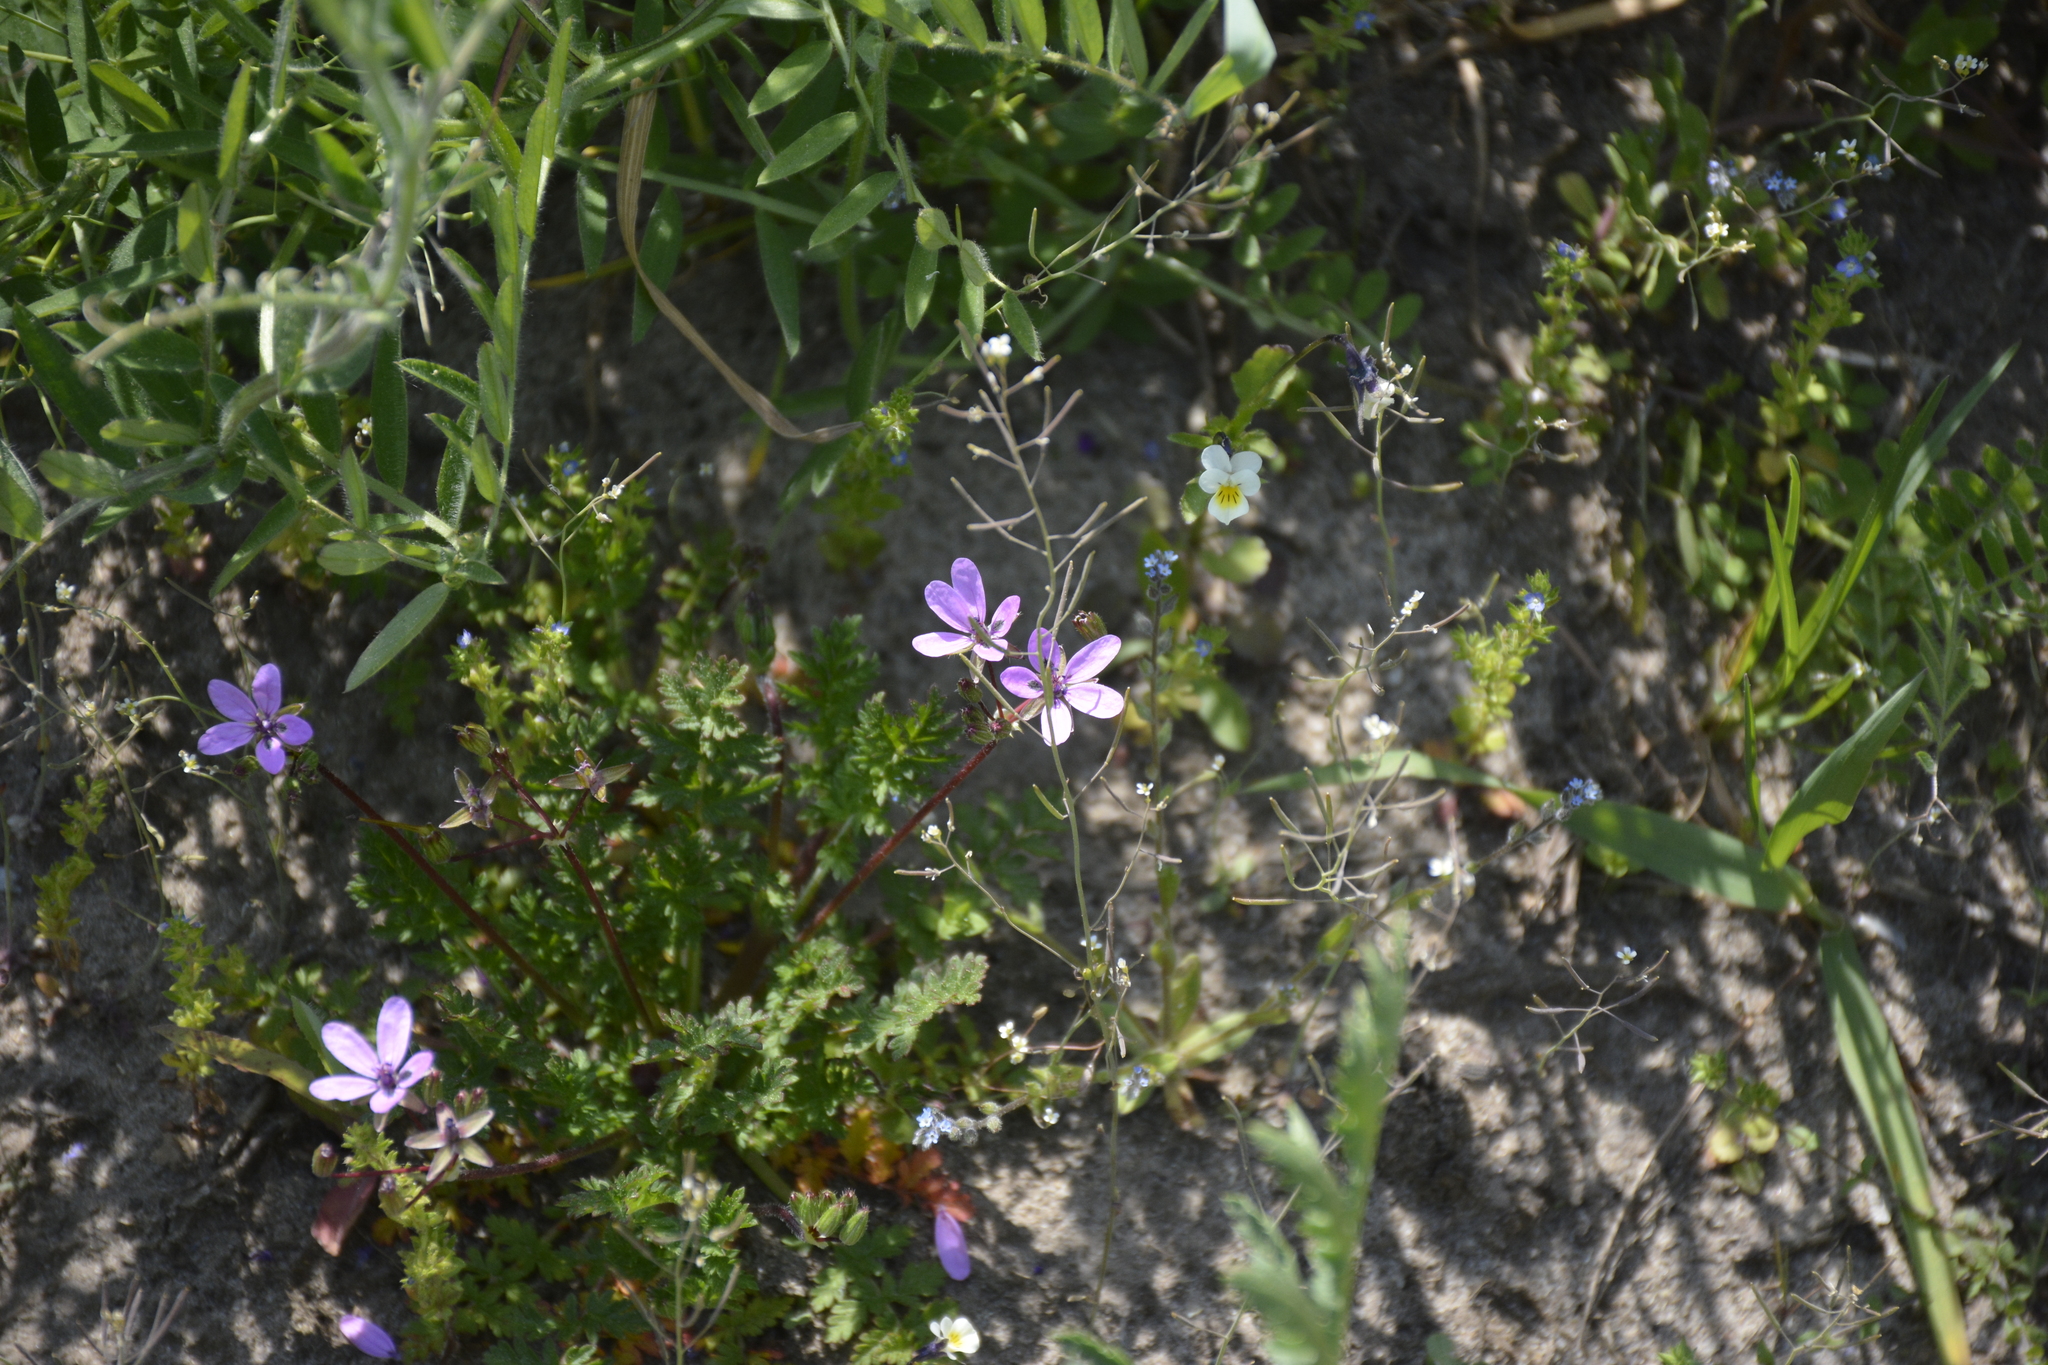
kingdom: Plantae
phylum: Tracheophyta
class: Magnoliopsida
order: Geraniales
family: Geraniaceae
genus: Erodium
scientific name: Erodium cicutarium
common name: Common stork's-bill
